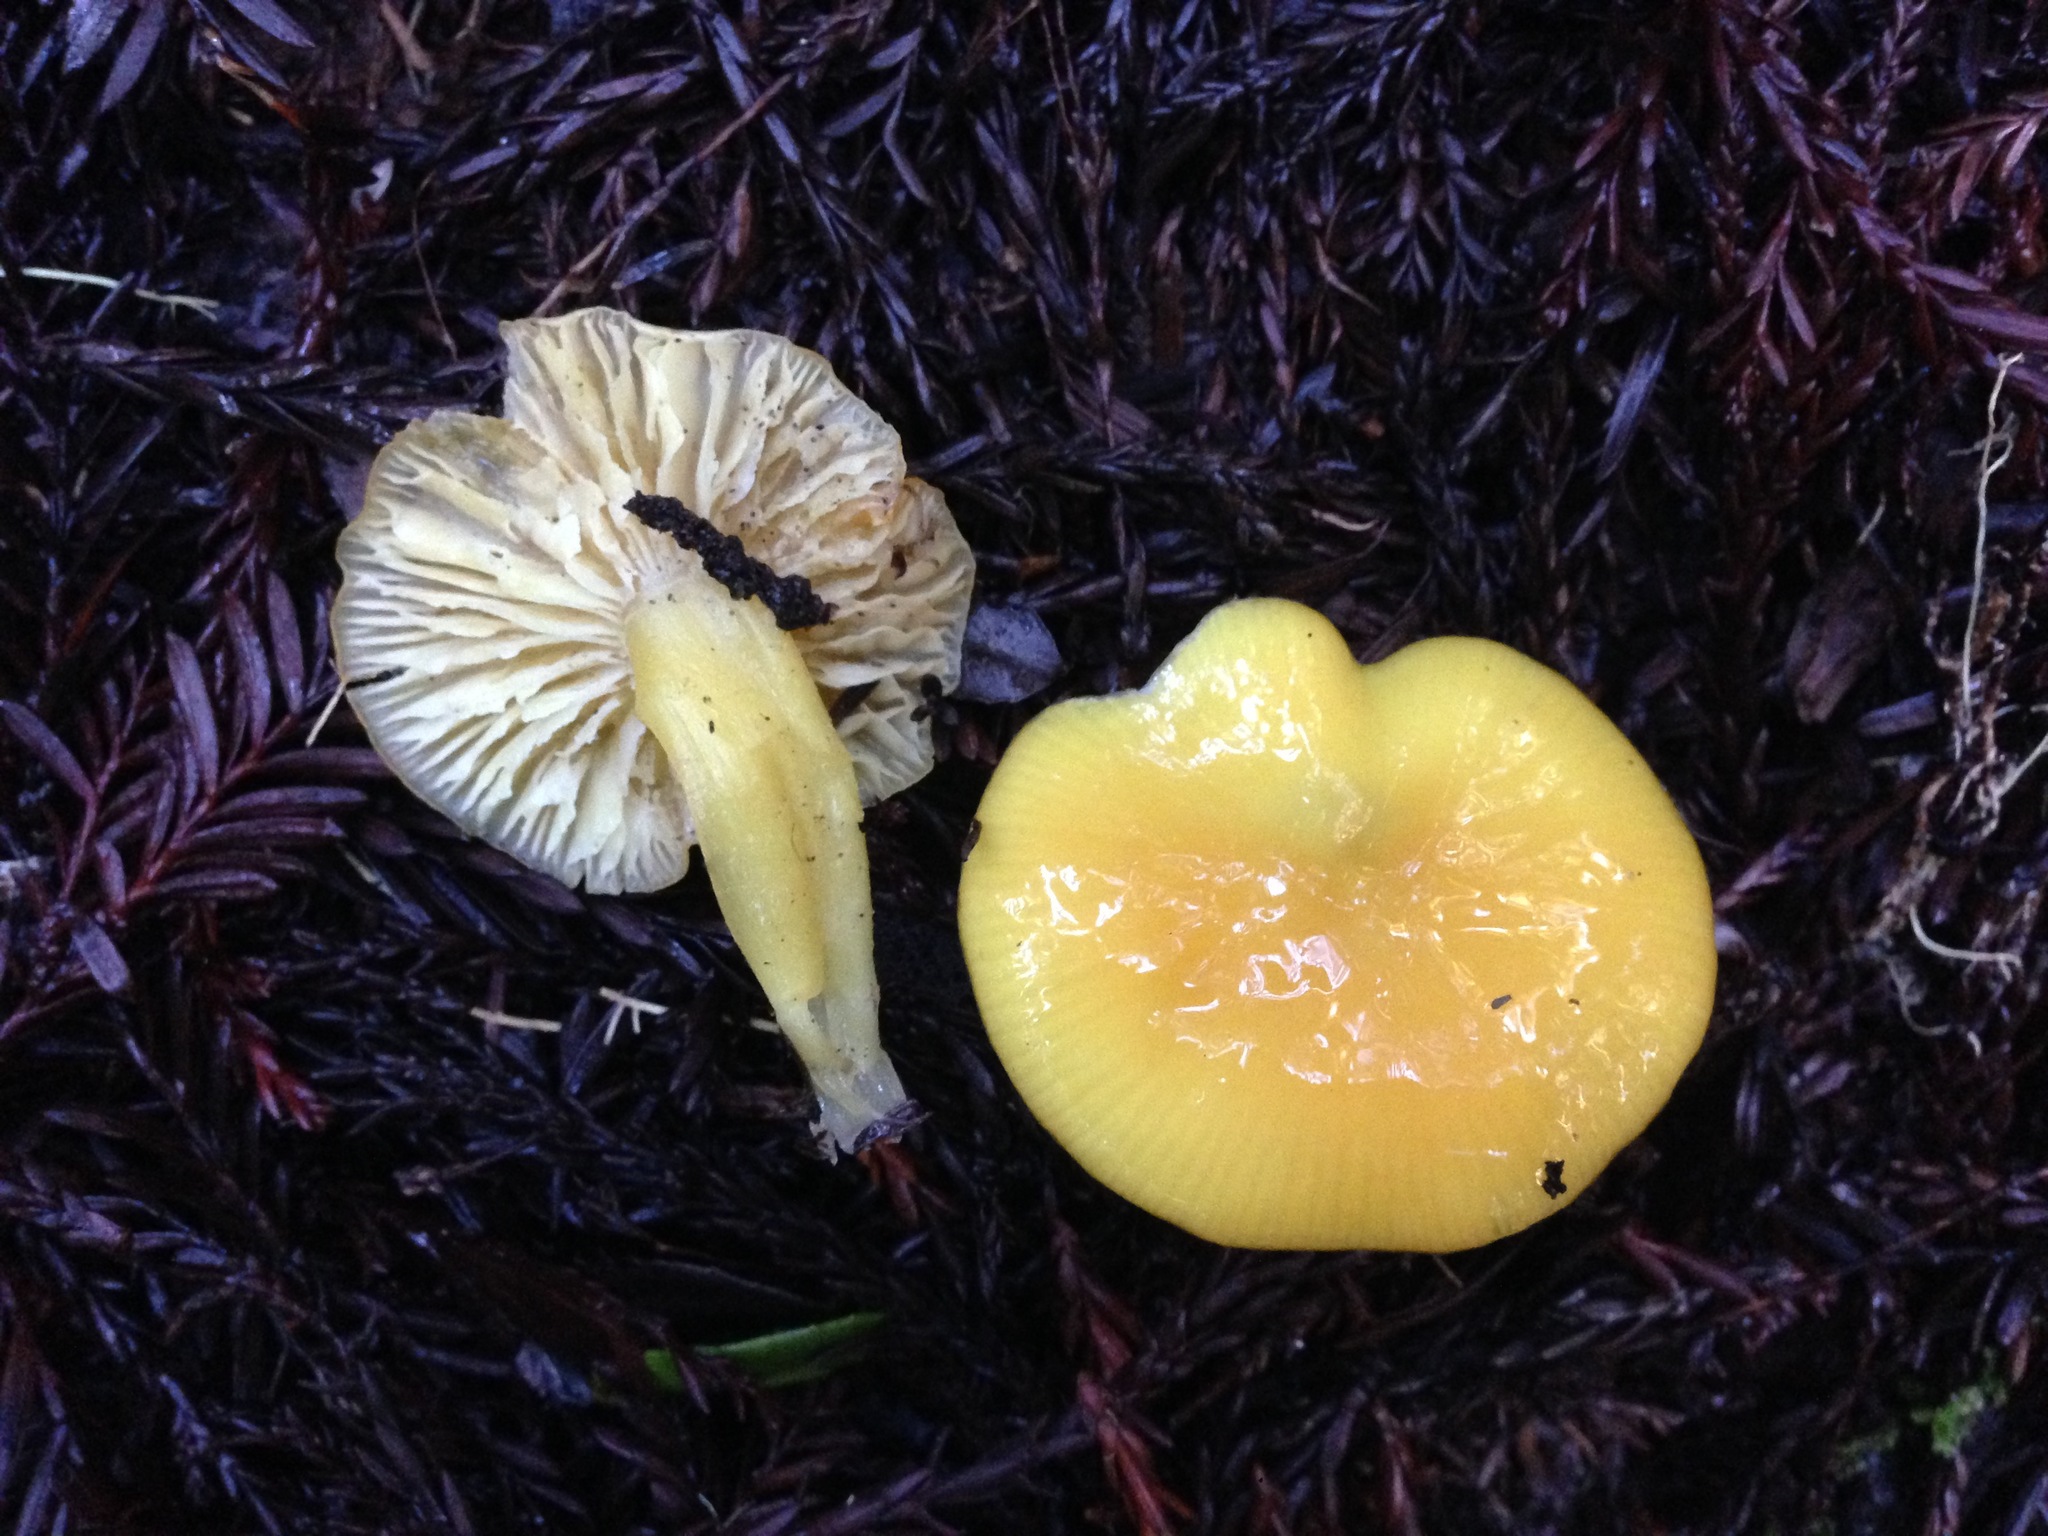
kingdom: Fungi
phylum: Basidiomycota
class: Agaricomycetes
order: Agaricales
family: Hygrophoraceae
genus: Hygrocybe
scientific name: Hygrocybe flavescens
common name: Golden waxy cap
